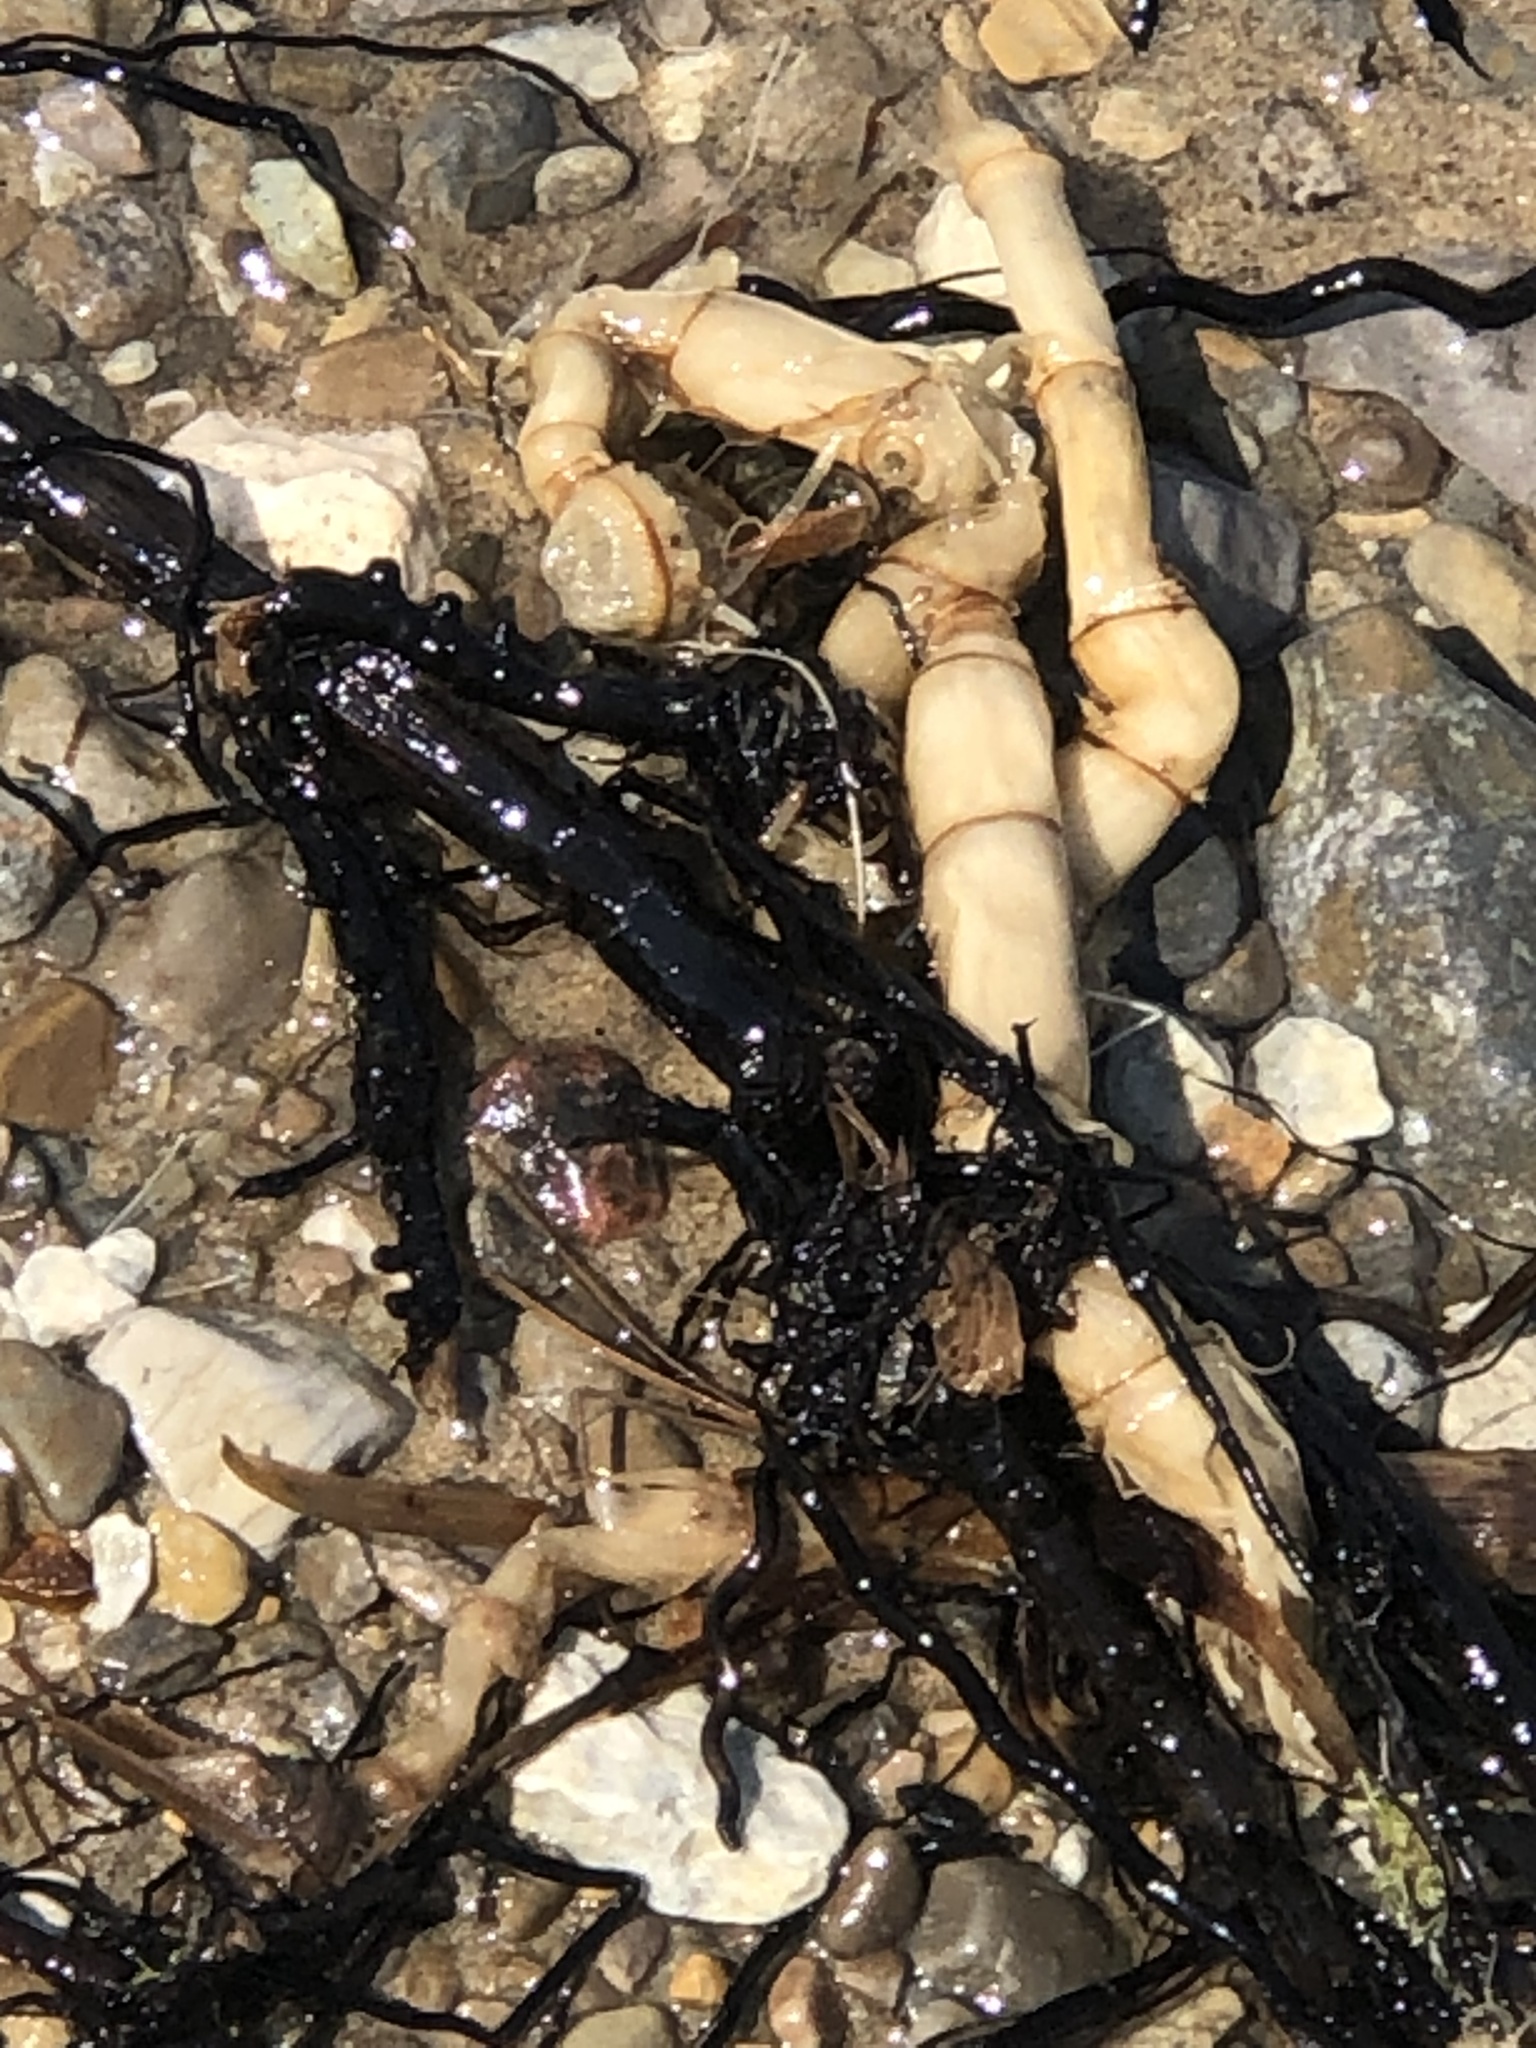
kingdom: Plantae
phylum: Tracheophyta
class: Liliopsida
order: Poales
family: Poaceae
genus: Phragmites
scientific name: Phragmites australis
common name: Common reed
